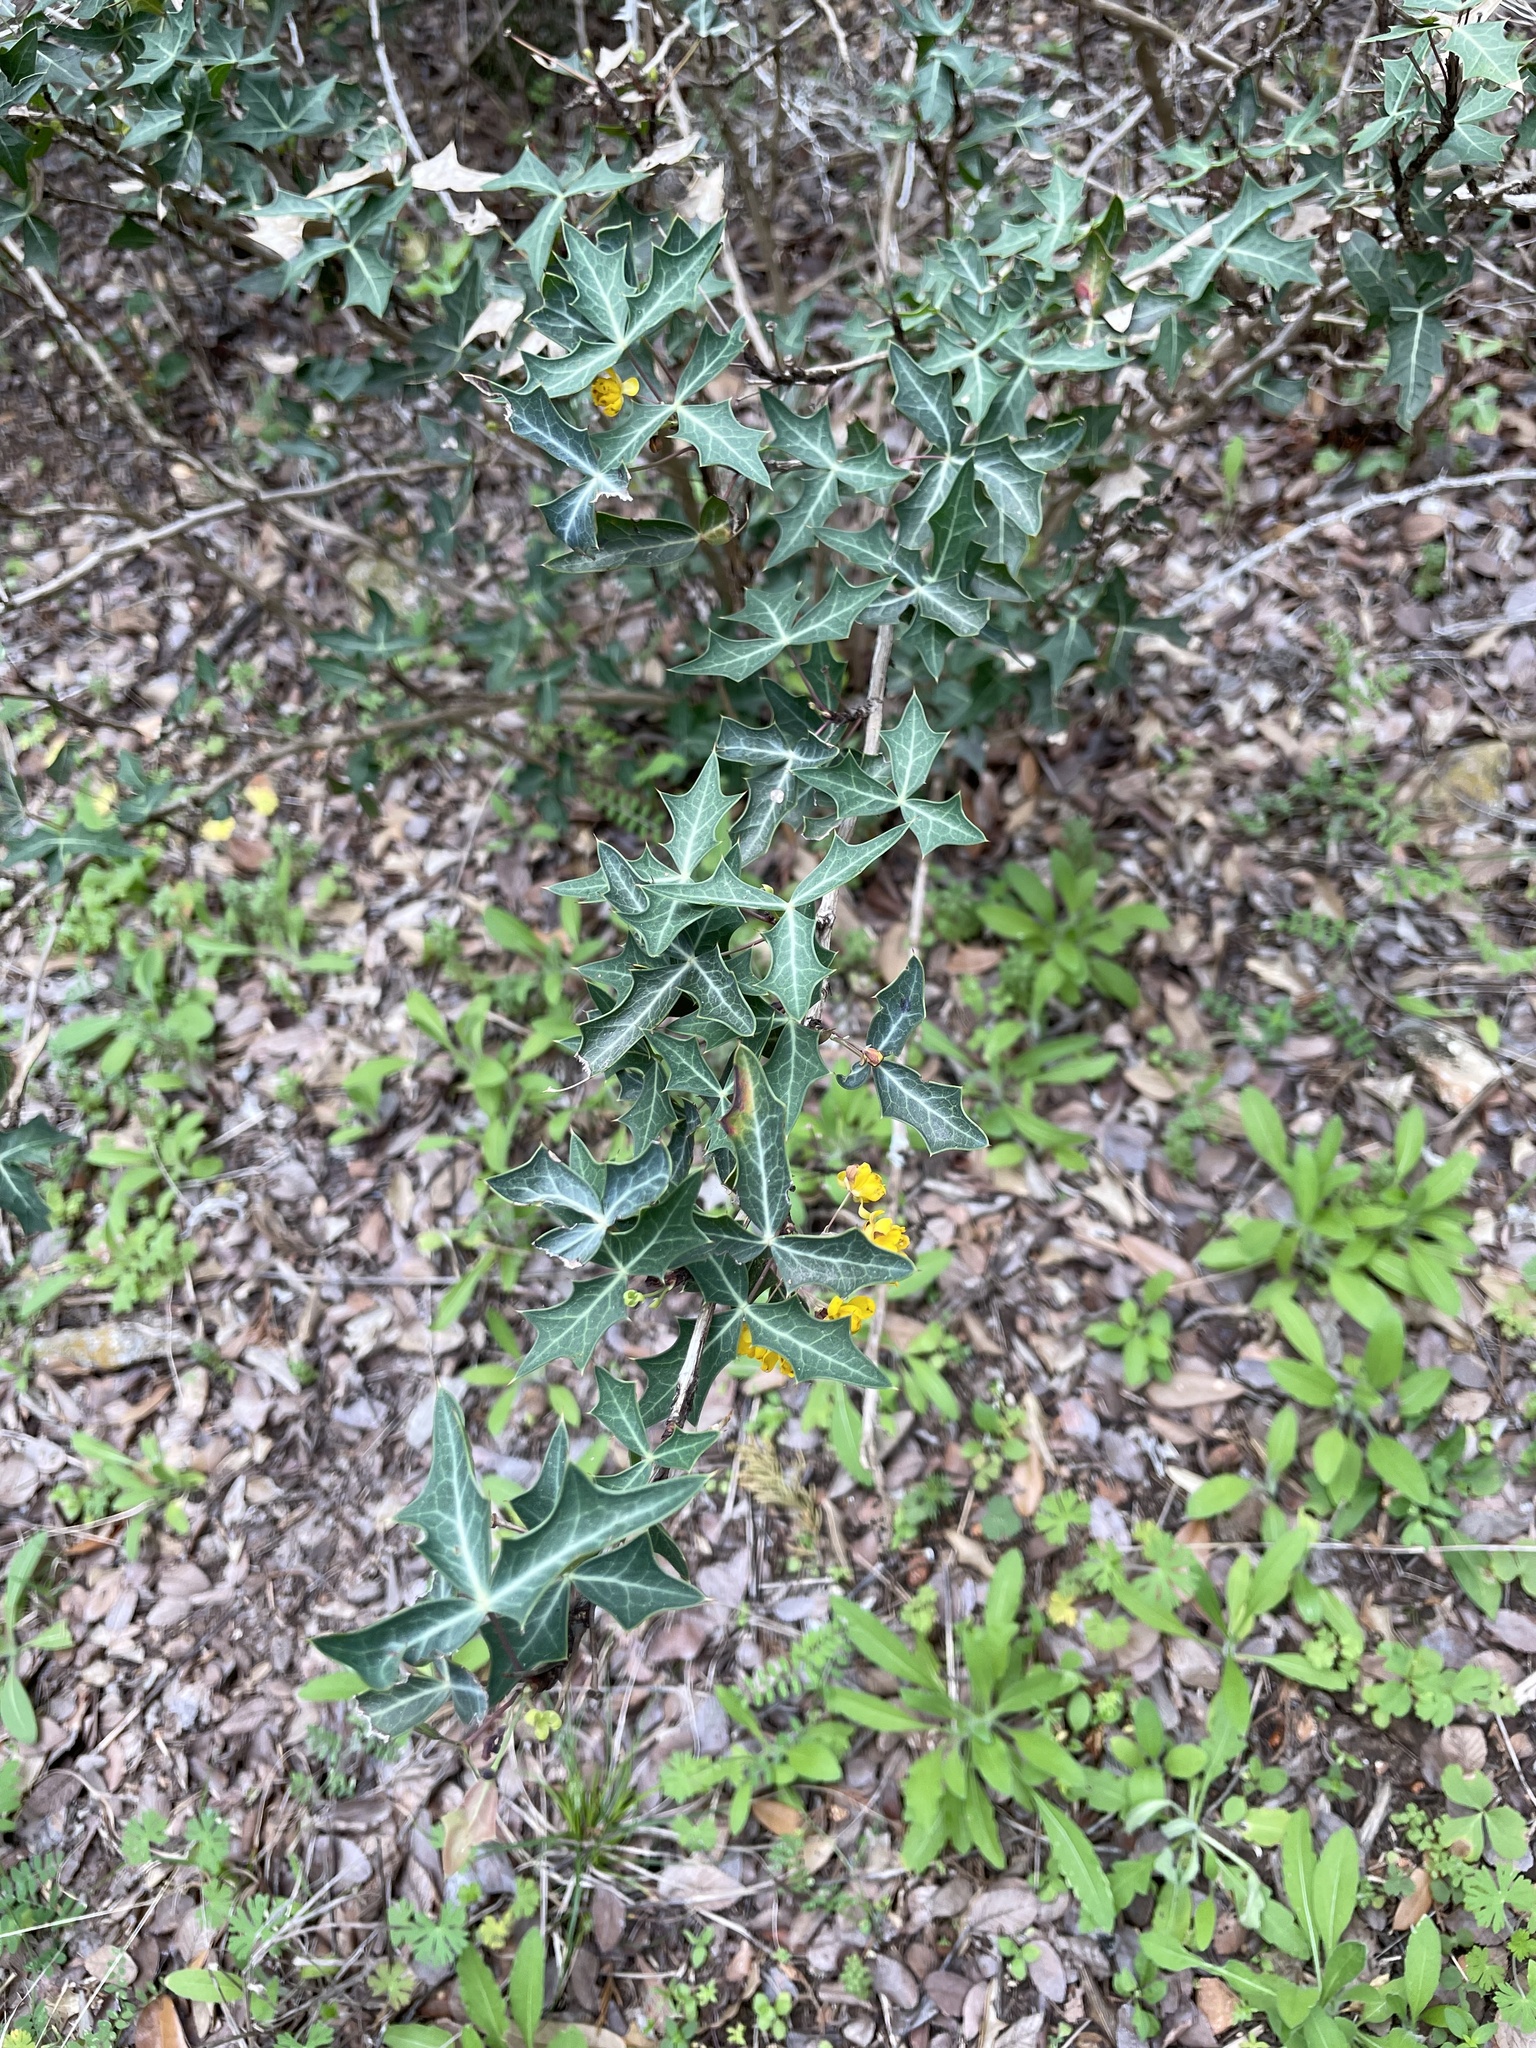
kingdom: Plantae
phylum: Tracheophyta
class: Magnoliopsida
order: Ranunculales
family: Berberidaceae
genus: Alloberberis
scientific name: Alloberberis trifoliolata
